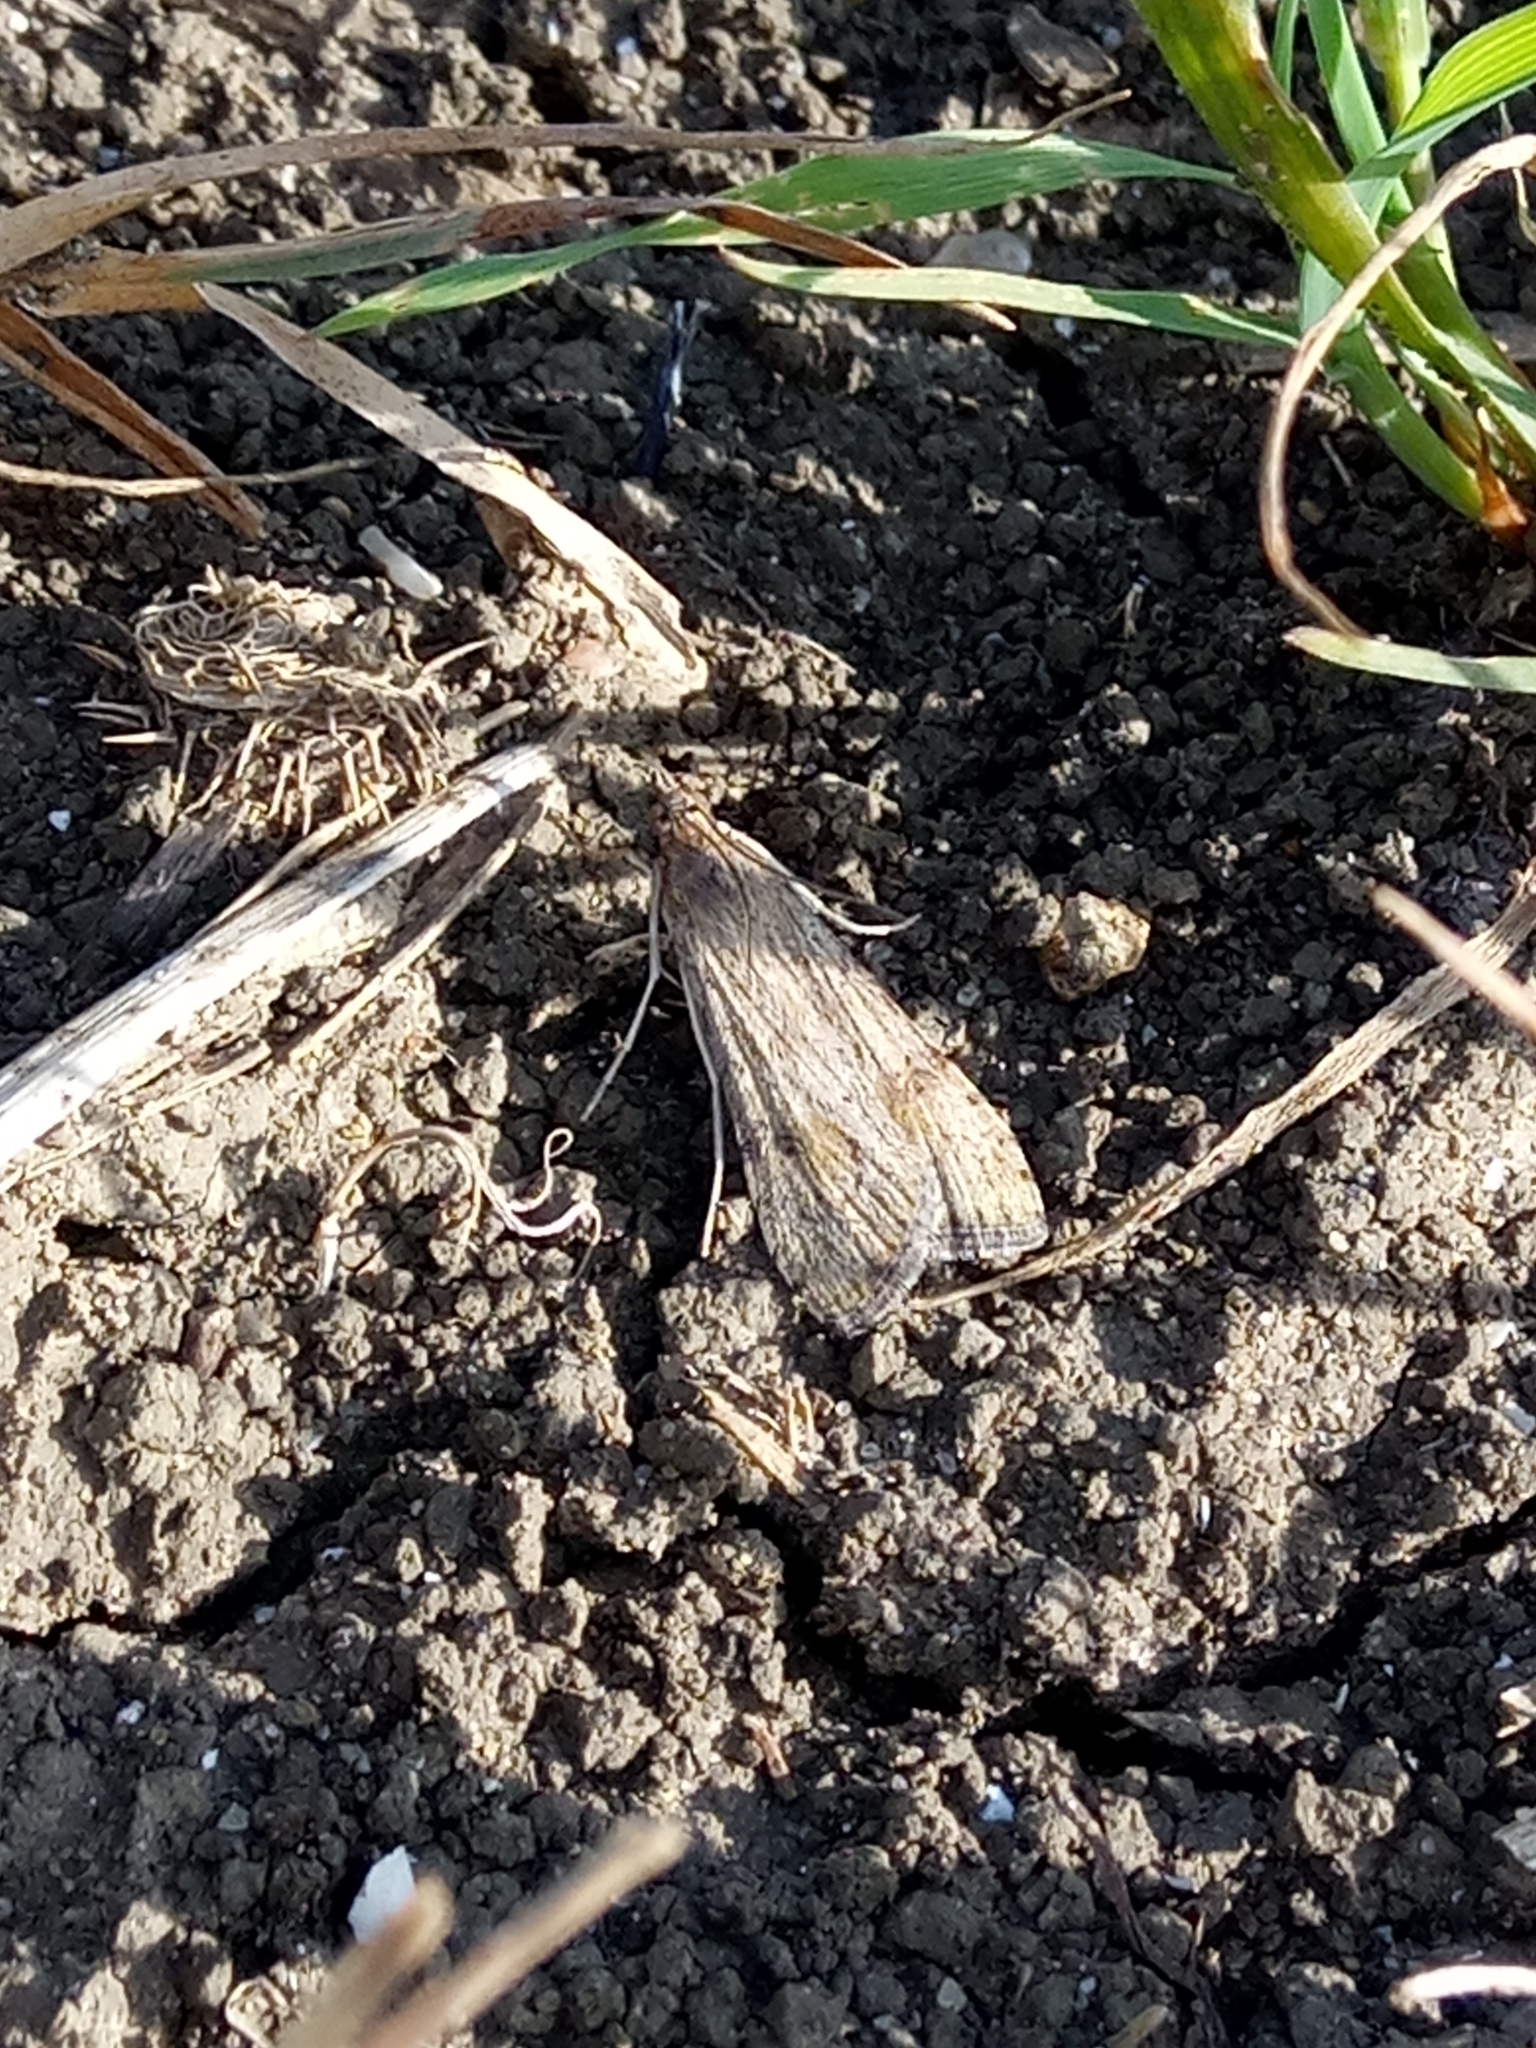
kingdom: Animalia
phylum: Arthropoda
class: Insecta
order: Lepidoptera
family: Crambidae
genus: Nomophila
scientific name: Nomophila noctuella
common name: Rush veneer
